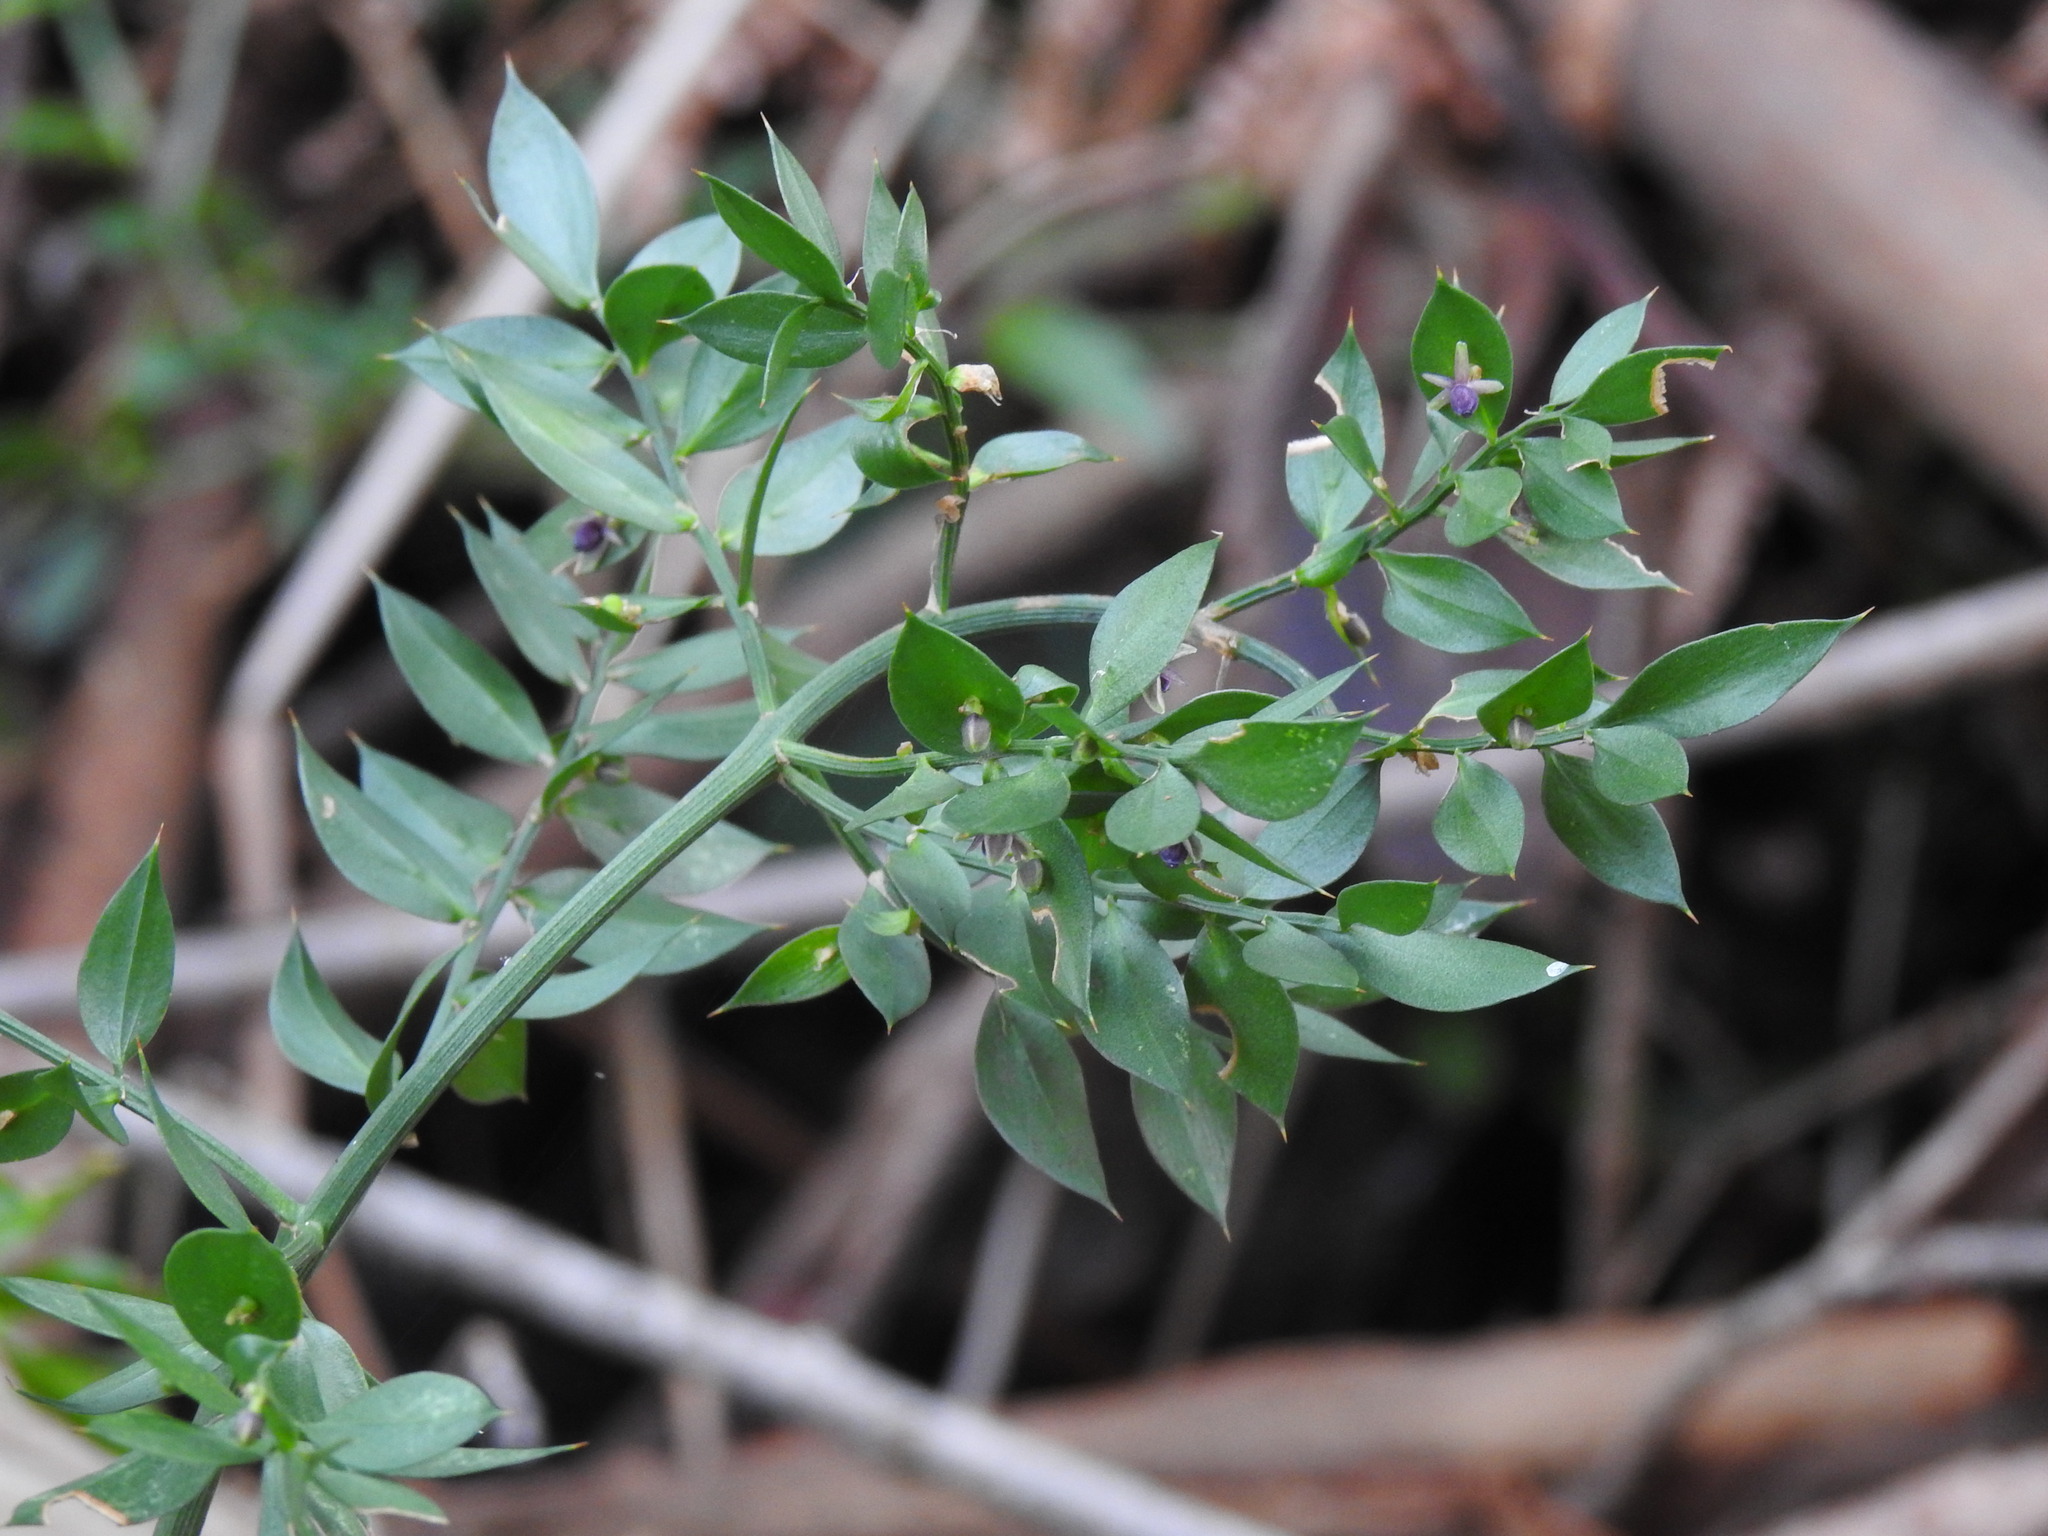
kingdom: Plantae
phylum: Tracheophyta
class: Liliopsida
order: Asparagales
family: Asparagaceae
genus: Ruscus
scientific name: Ruscus aculeatus
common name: Butcher's-broom
